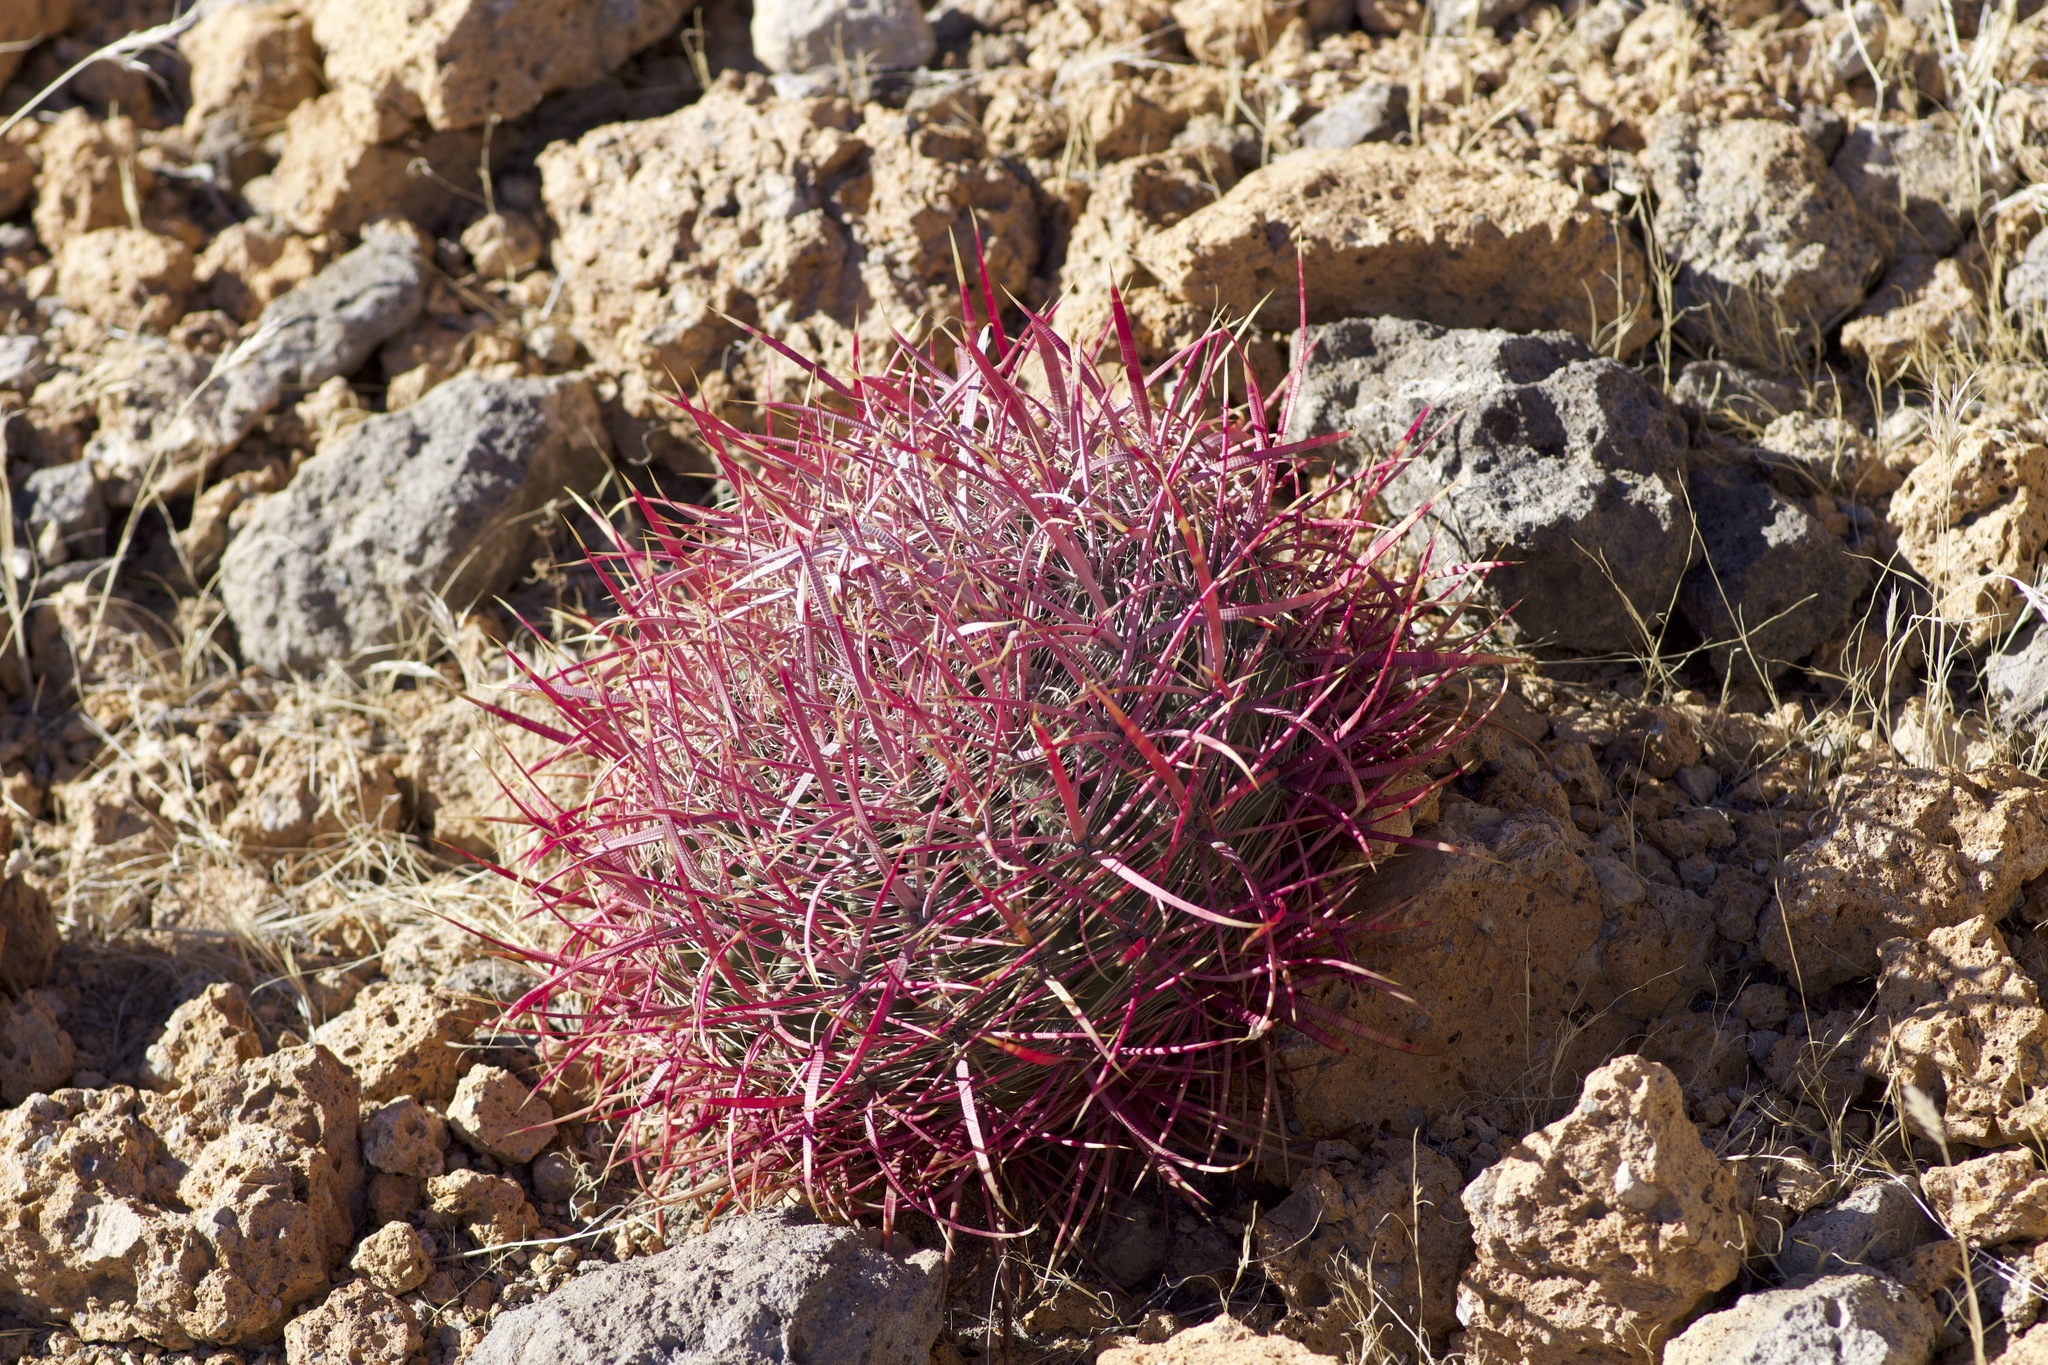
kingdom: Plantae
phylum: Tracheophyta
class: Magnoliopsida
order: Caryophyllales
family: Cactaceae
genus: Ferocactus
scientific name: Ferocactus cylindraceus
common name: California barrel cactus
